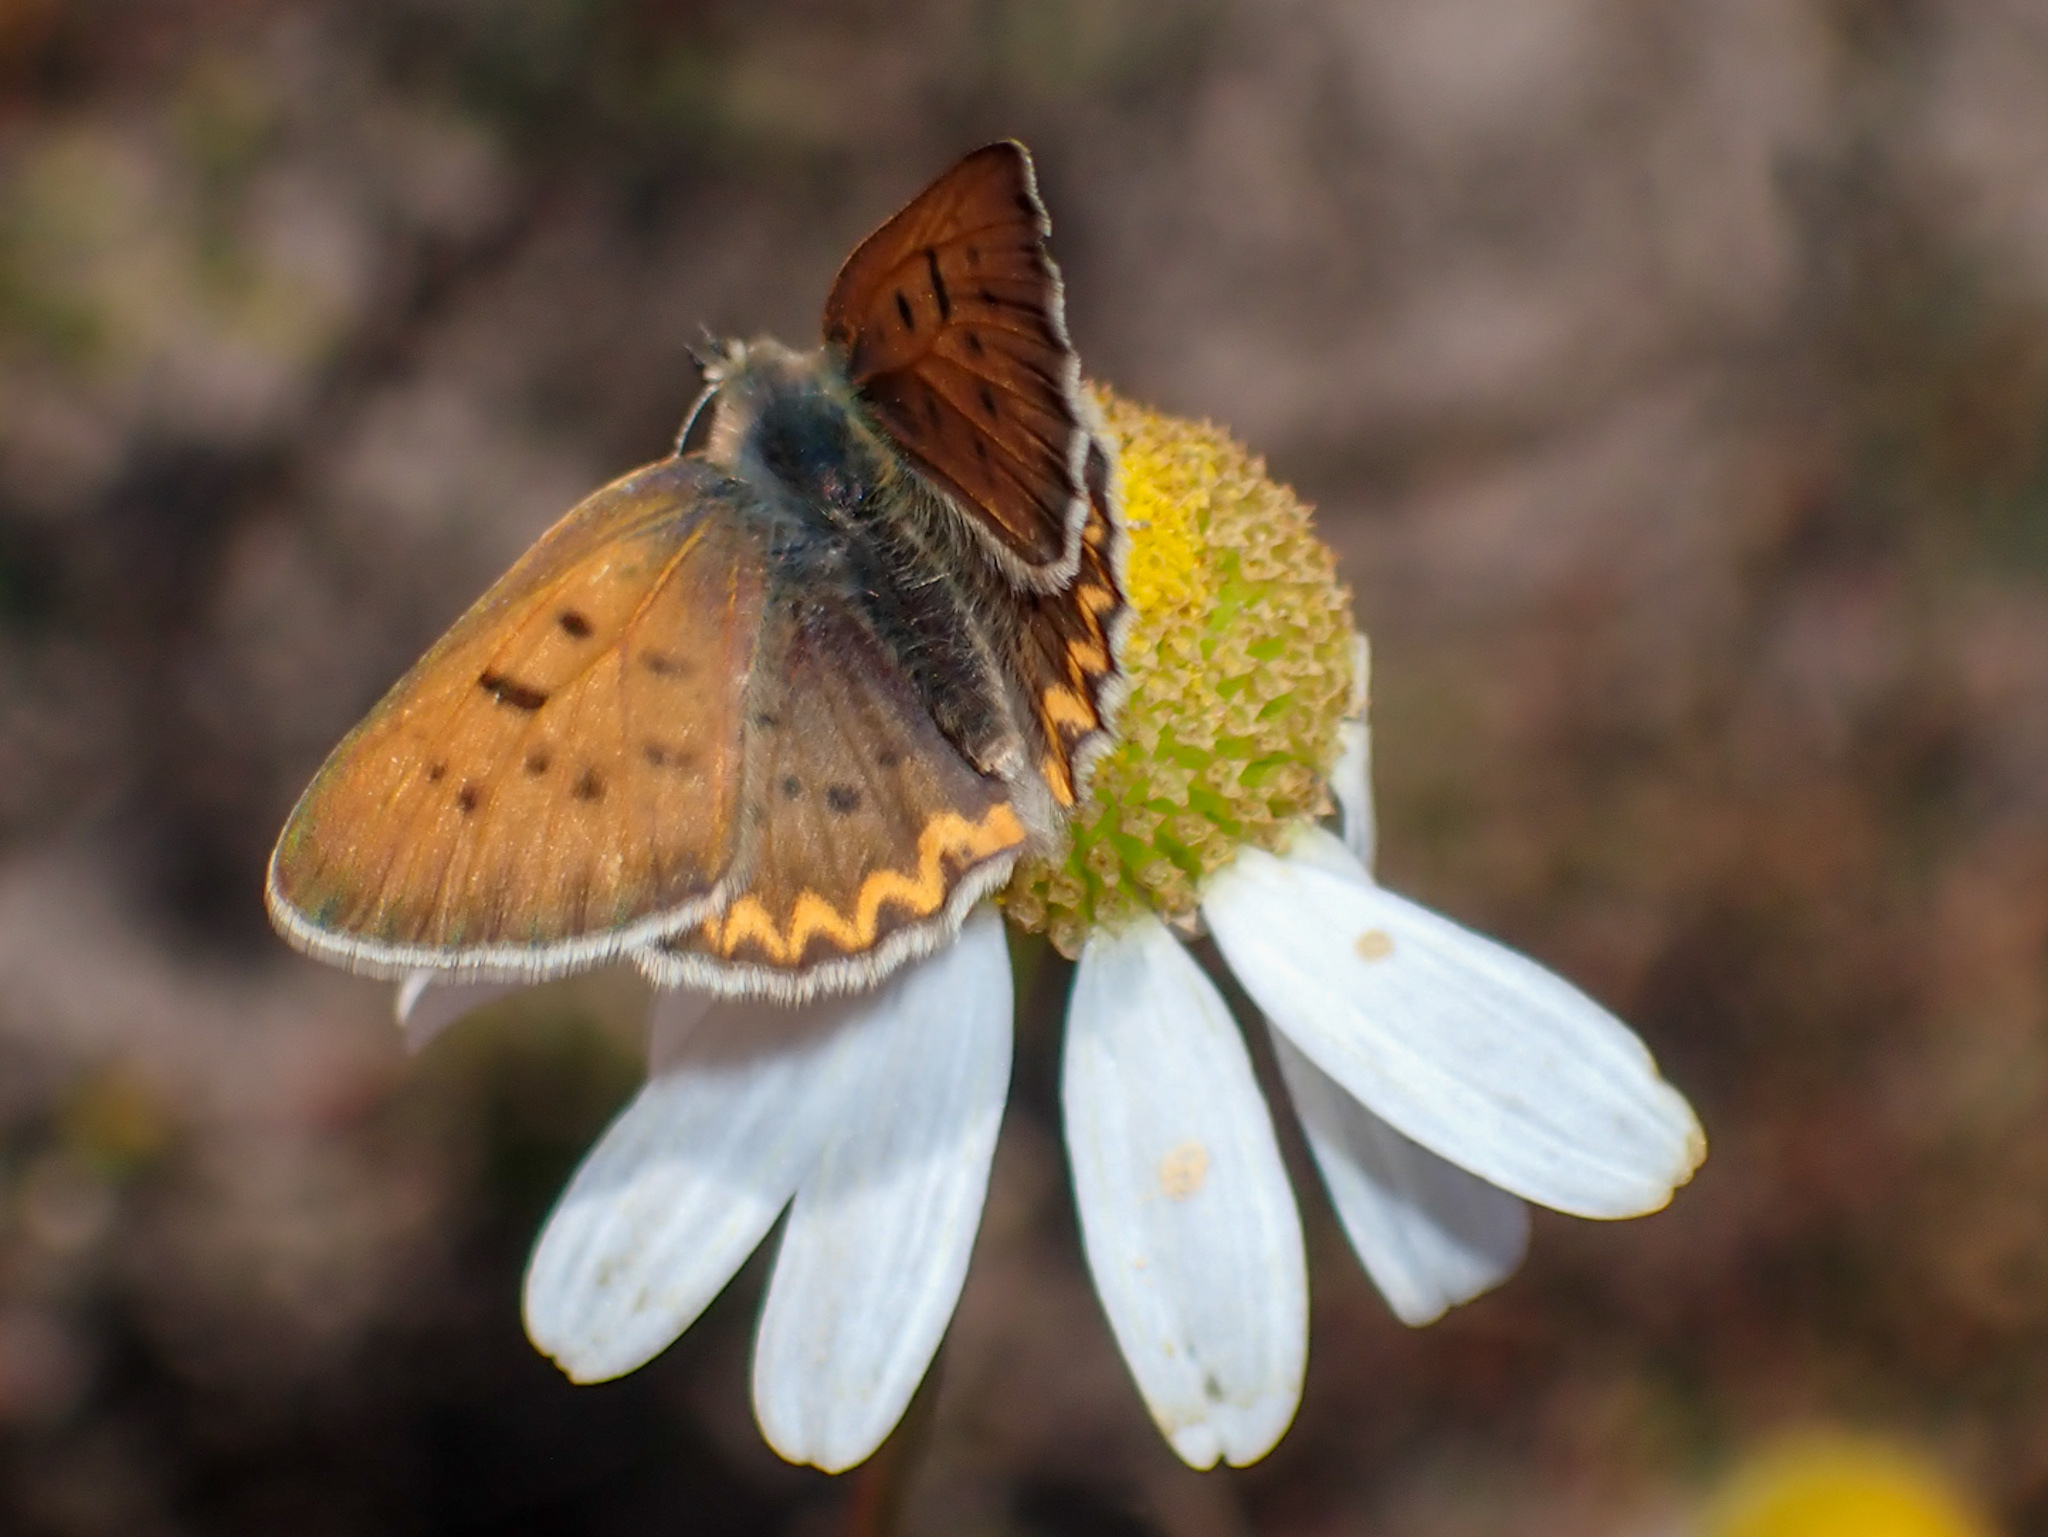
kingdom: Animalia
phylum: Arthropoda
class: Insecta
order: Lepidoptera
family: Lycaenidae
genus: Tharsalea
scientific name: Tharsalea helloides
